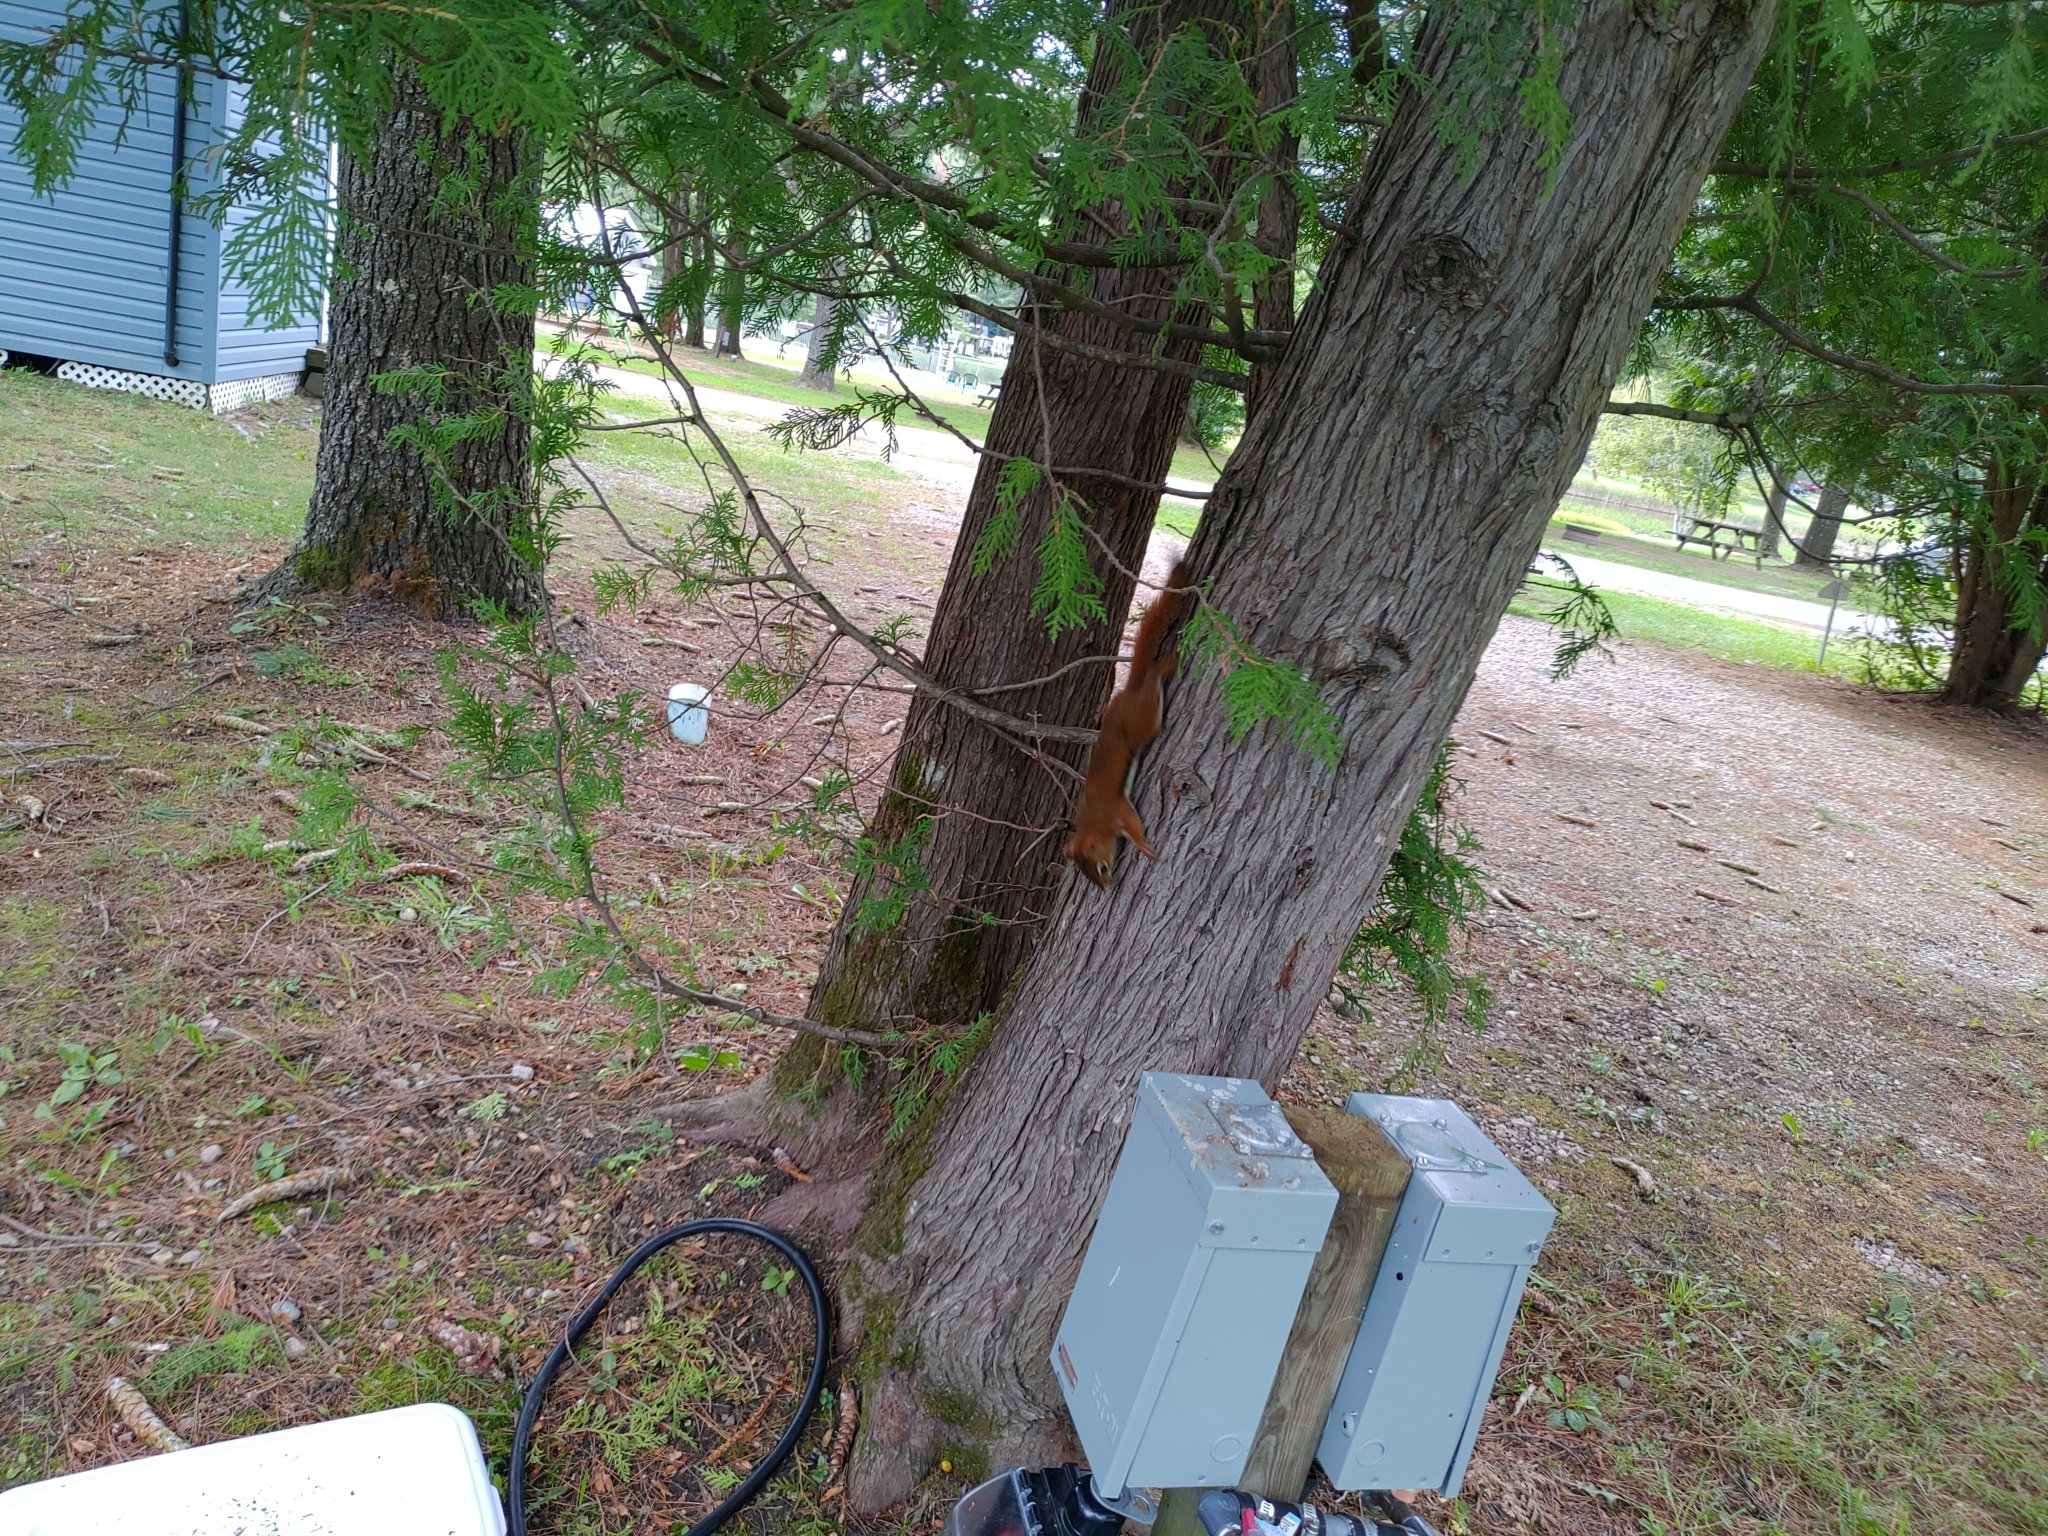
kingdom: Animalia
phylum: Chordata
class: Mammalia
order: Rodentia
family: Sciuridae
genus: Tamiasciurus
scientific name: Tamiasciurus hudsonicus
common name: Red squirrel
